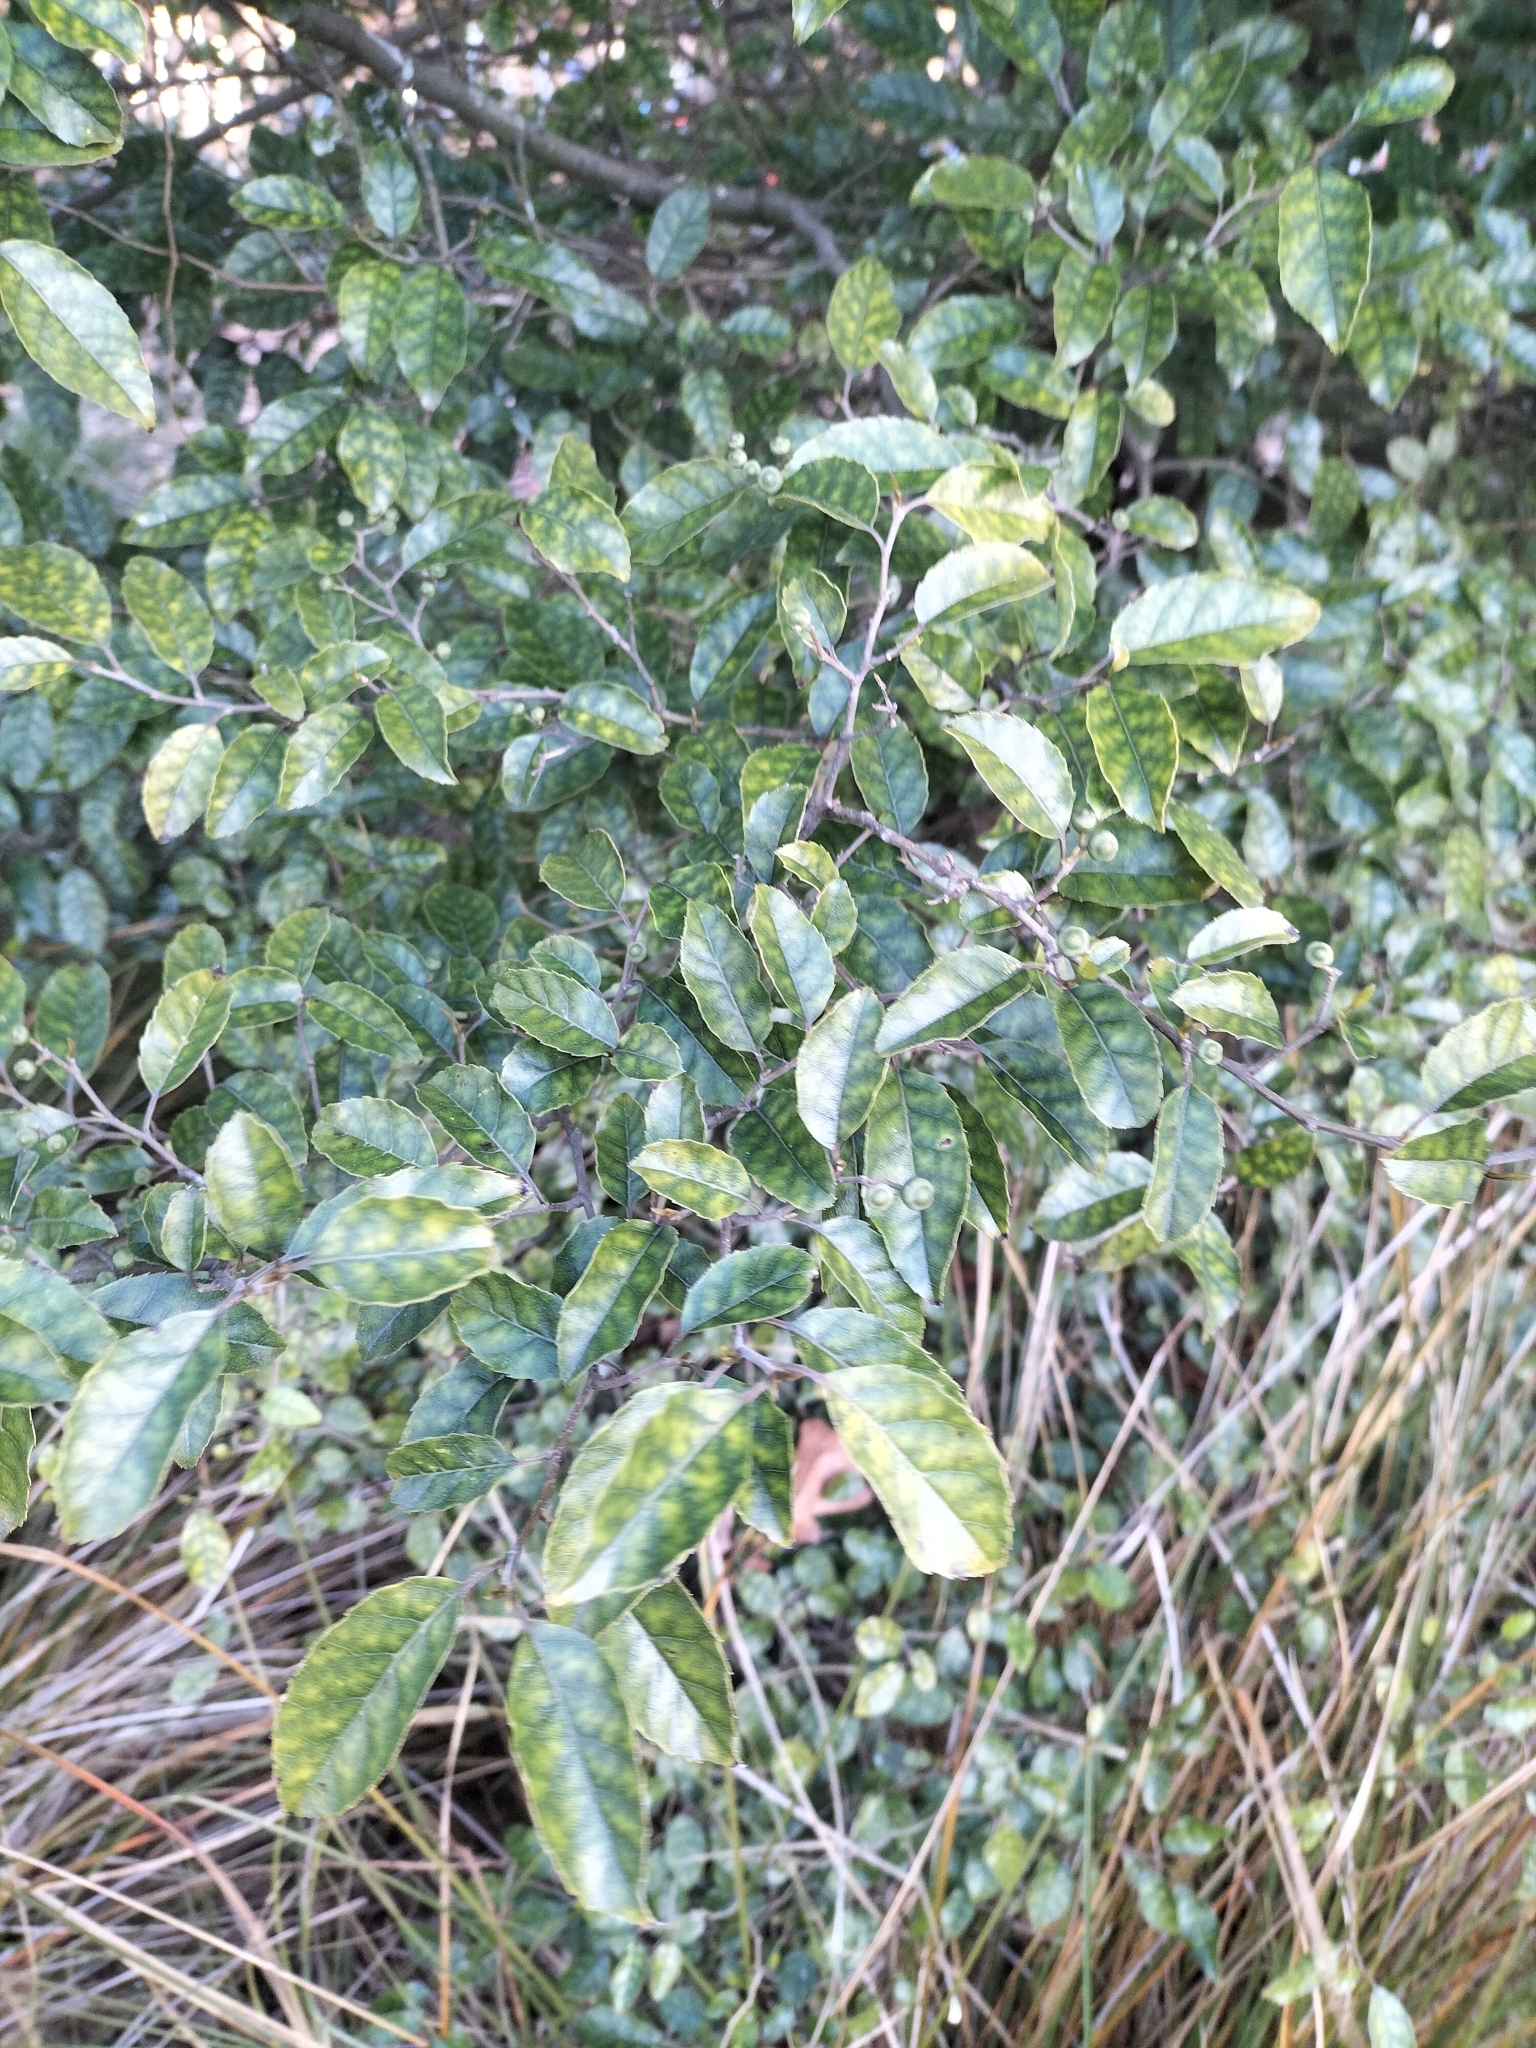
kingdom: Plantae
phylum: Tracheophyta
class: Magnoliopsida
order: Asterales
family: Rousseaceae
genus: Carpodetus
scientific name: Carpodetus serratus
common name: White mapau
